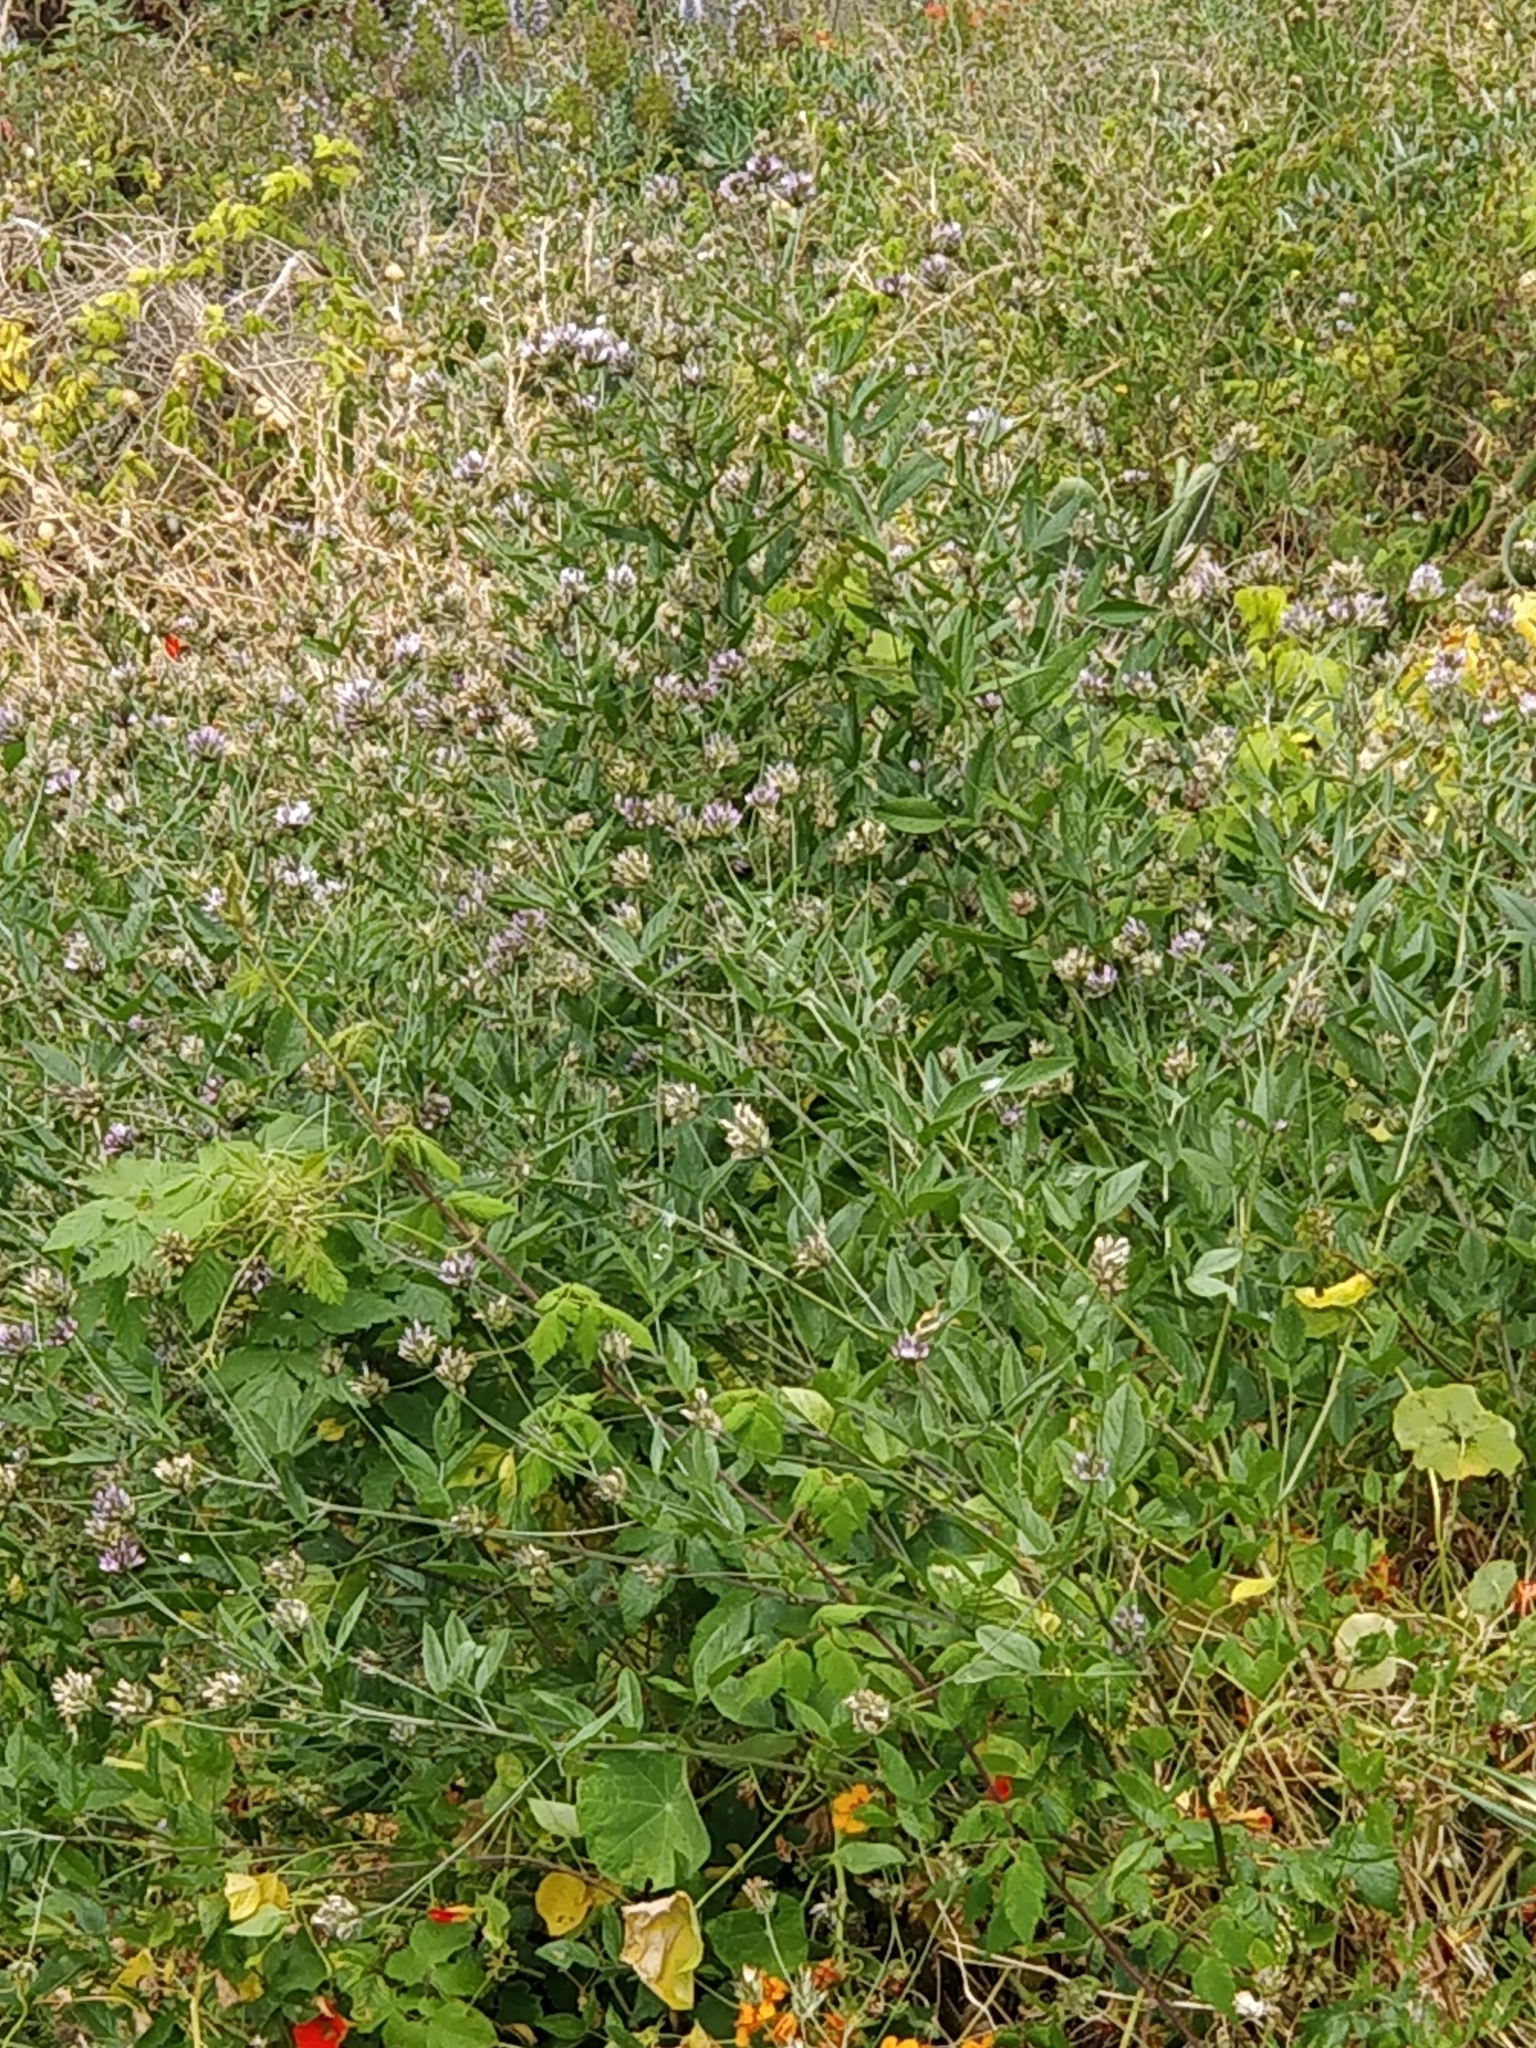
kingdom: Plantae
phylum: Tracheophyta
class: Magnoliopsida
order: Fabales
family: Fabaceae
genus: Bituminaria
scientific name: Bituminaria bituminosa
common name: Arabian pea
